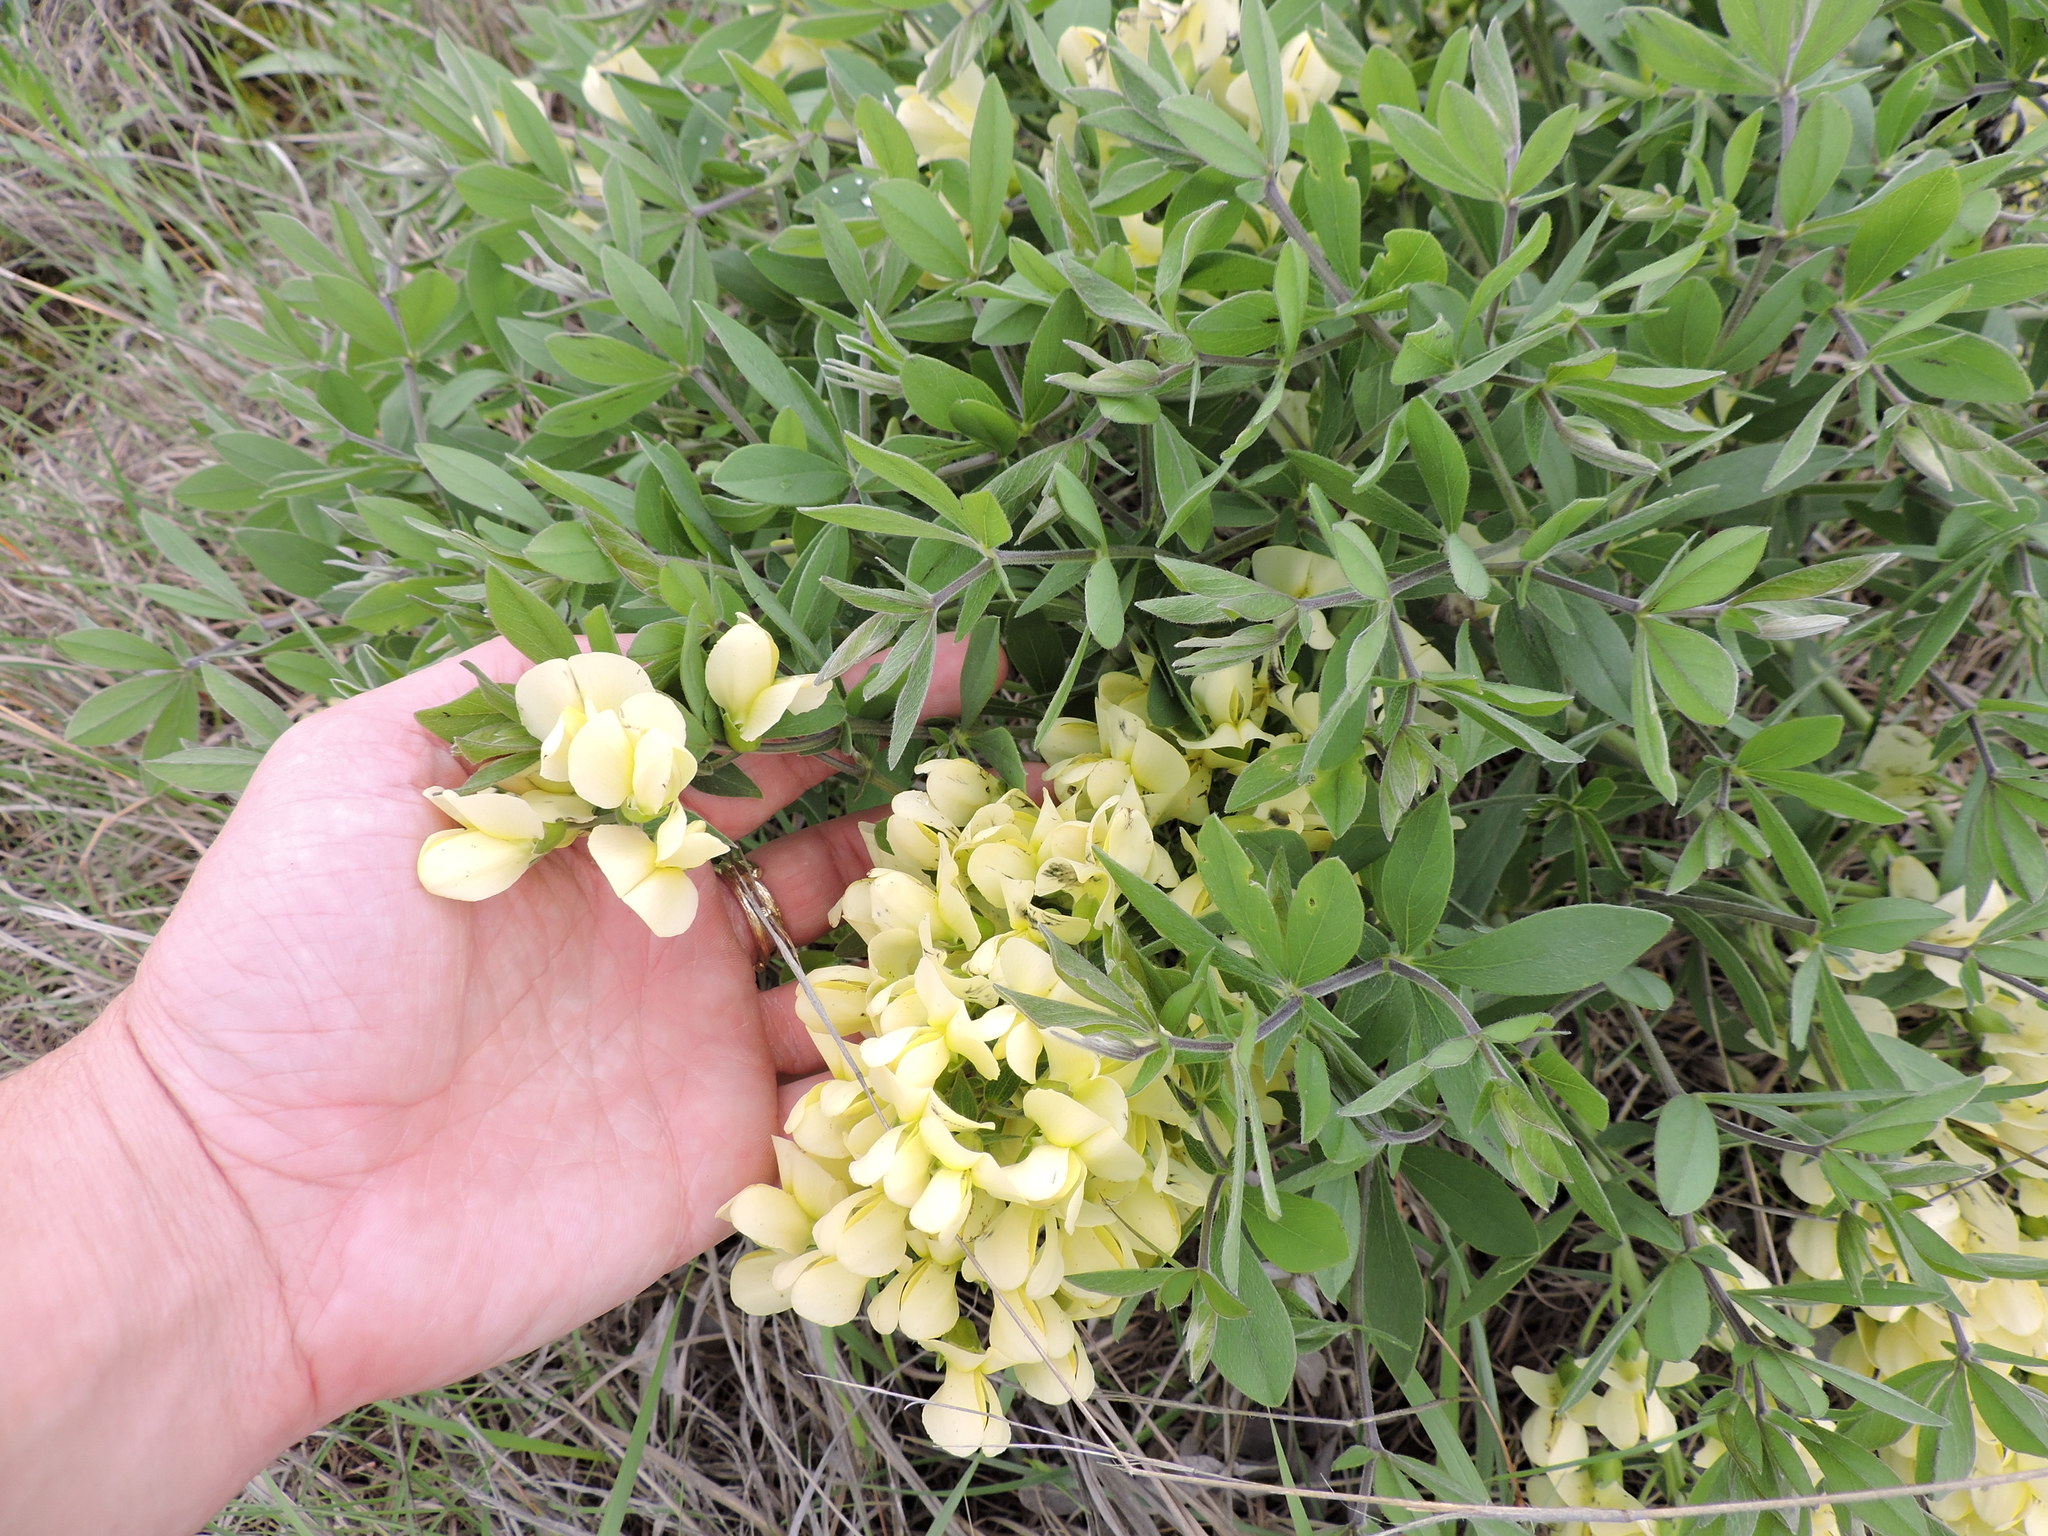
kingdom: Plantae
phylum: Tracheophyta
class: Magnoliopsida
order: Fabales
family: Fabaceae
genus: Baptisia
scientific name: Baptisia bracteata
